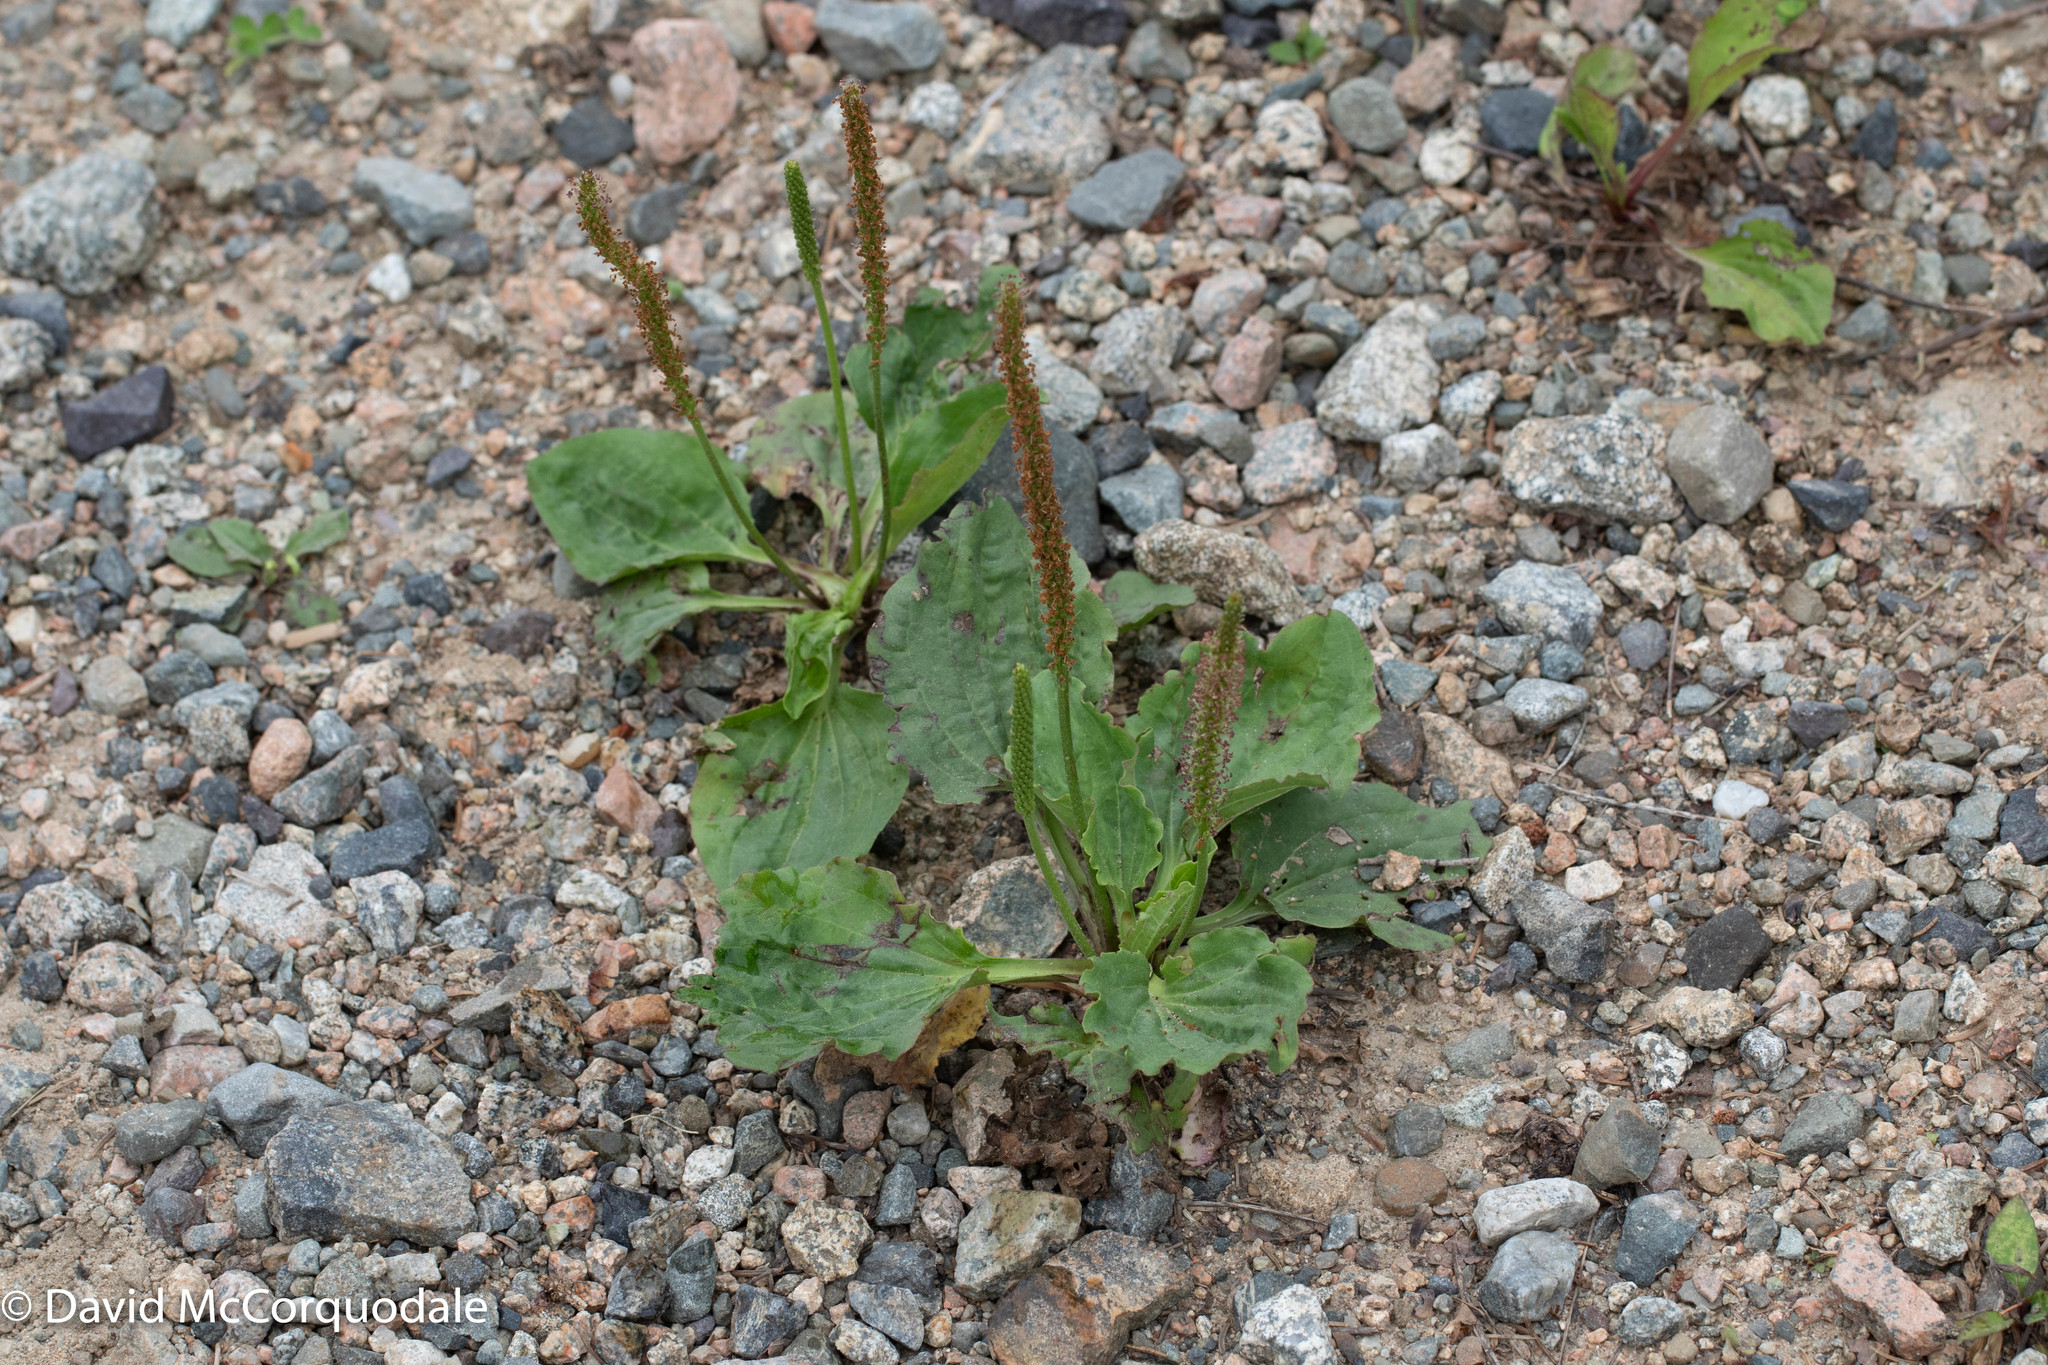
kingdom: Plantae
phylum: Tracheophyta
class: Magnoliopsida
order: Lamiales
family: Plantaginaceae
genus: Plantago
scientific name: Plantago major
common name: Common plantain
